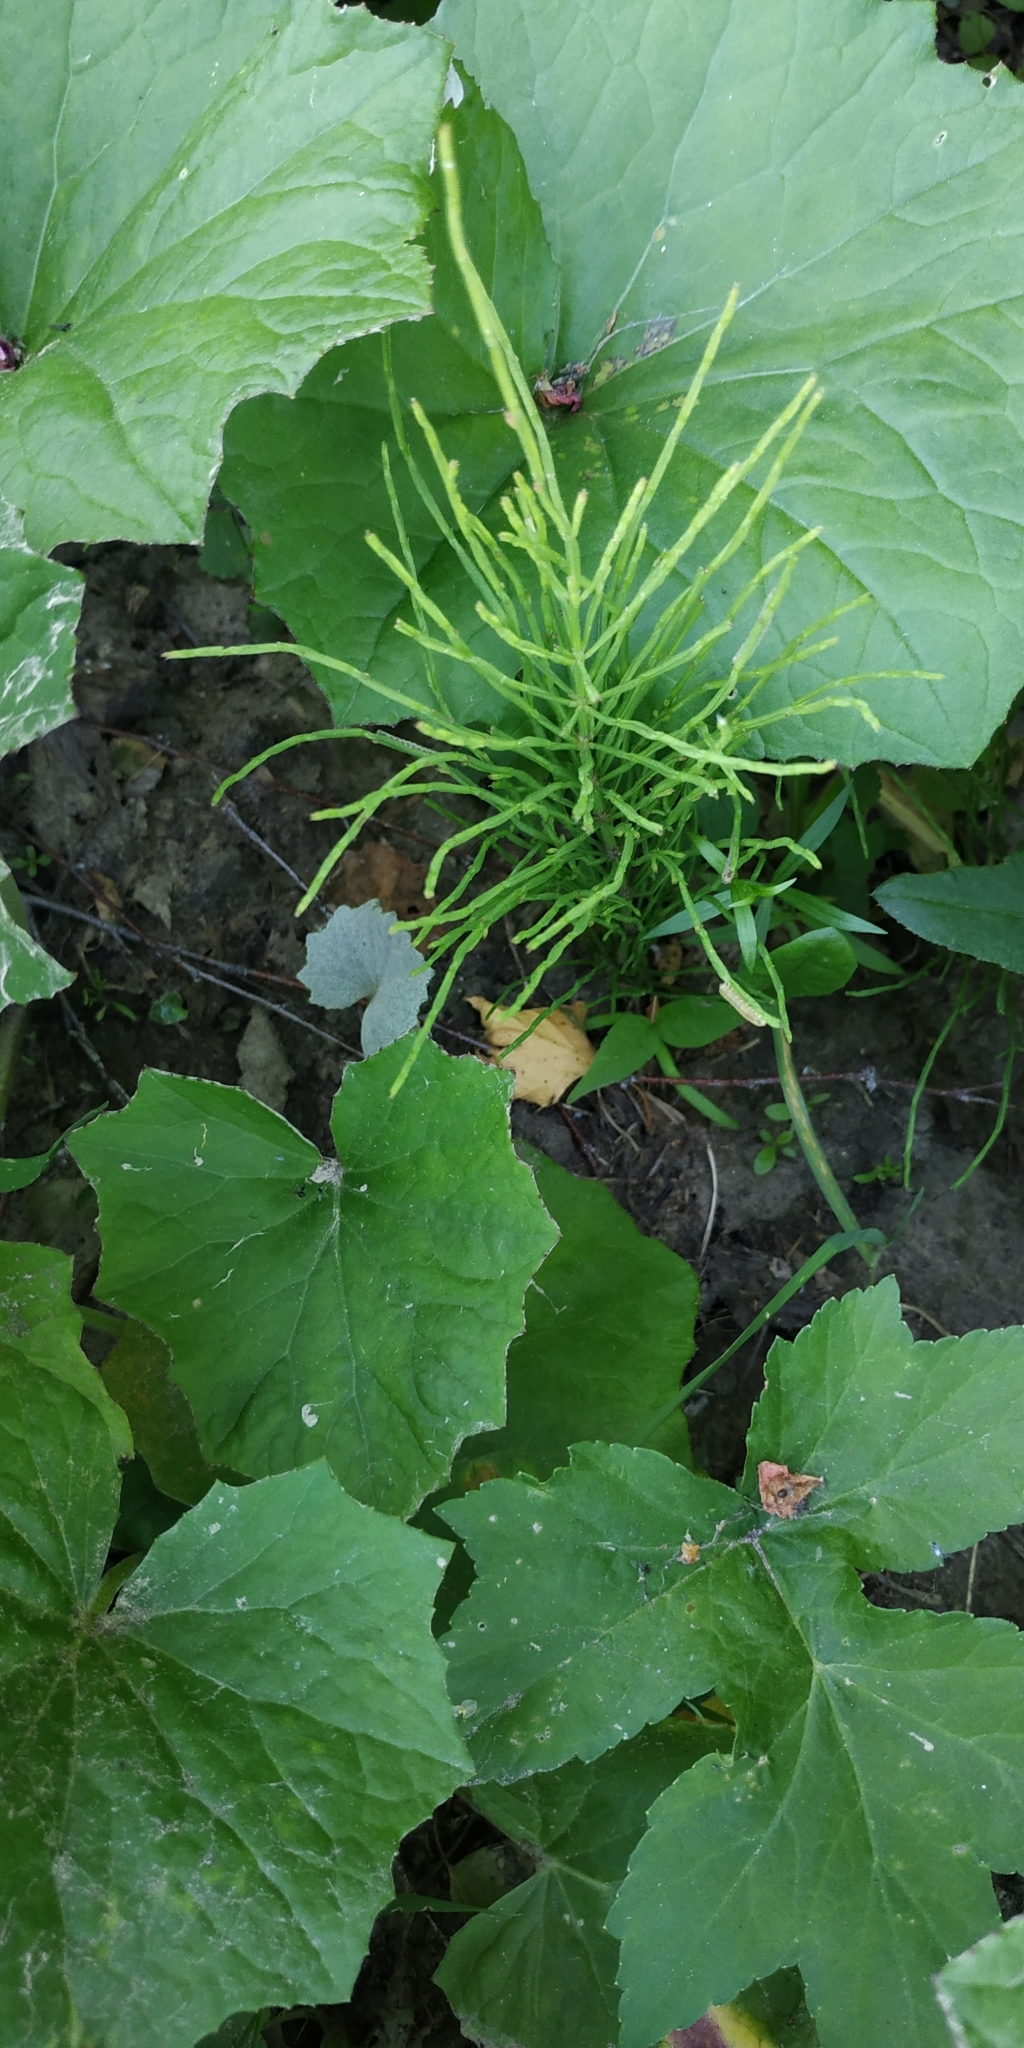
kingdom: Plantae
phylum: Tracheophyta
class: Polypodiopsida
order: Equisetales
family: Equisetaceae
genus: Equisetum
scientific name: Equisetum arvense
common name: Field horsetail
